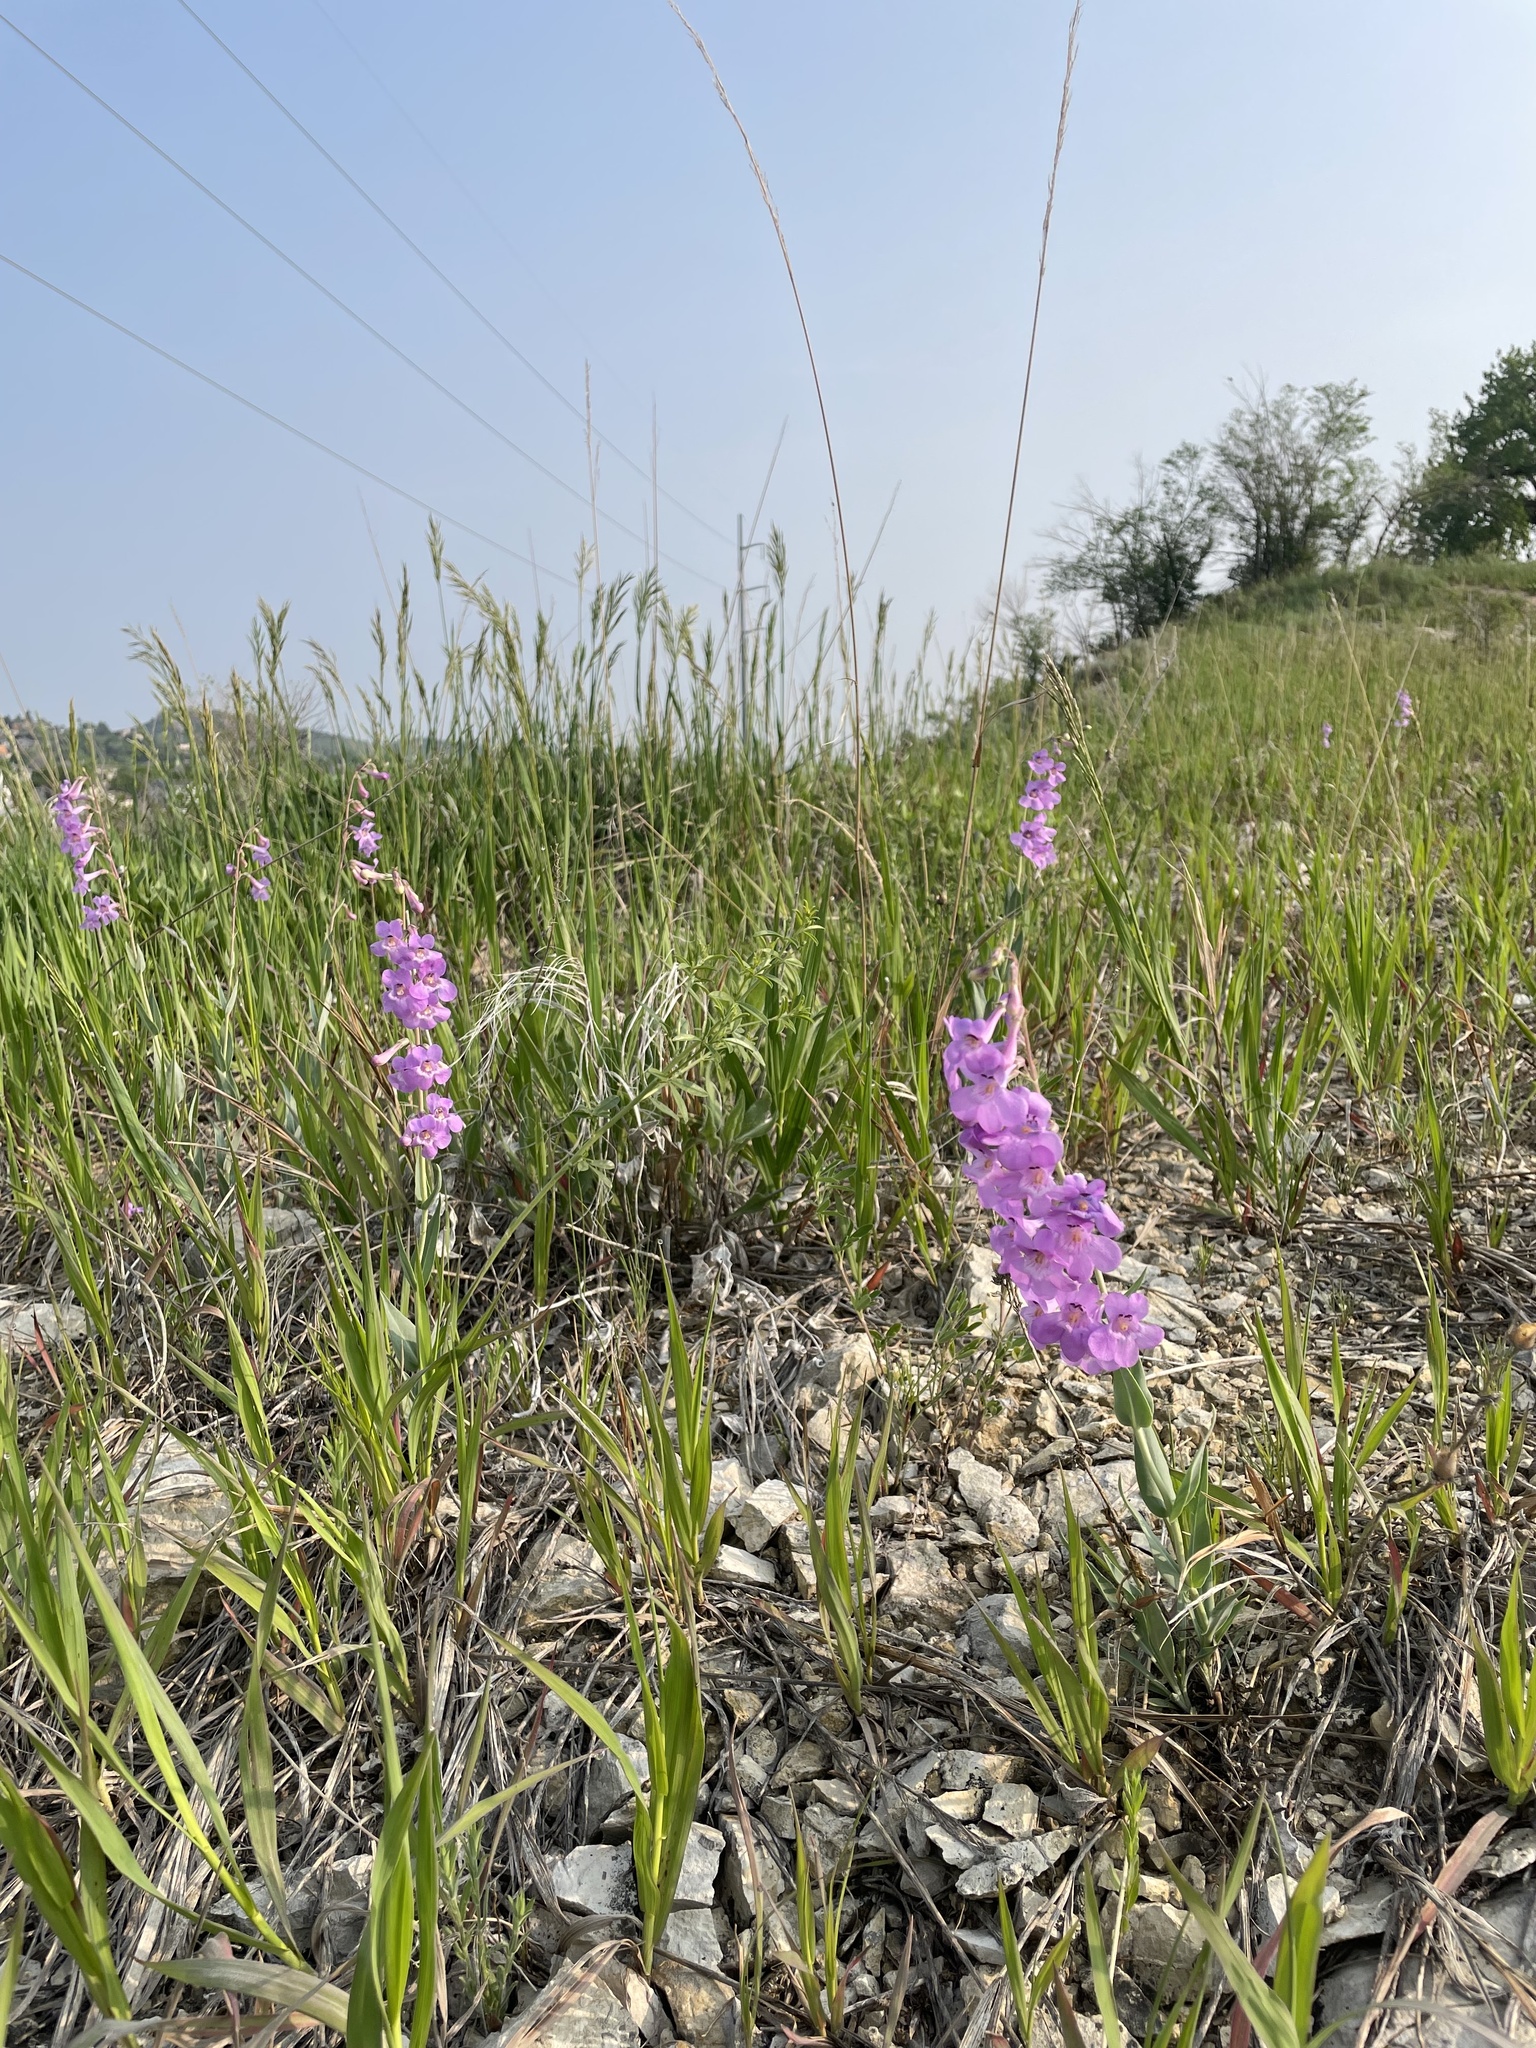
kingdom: Plantae
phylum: Tracheophyta
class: Magnoliopsida
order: Lamiales
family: Plantaginaceae
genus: Penstemon
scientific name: Penstemon secundiflorus
